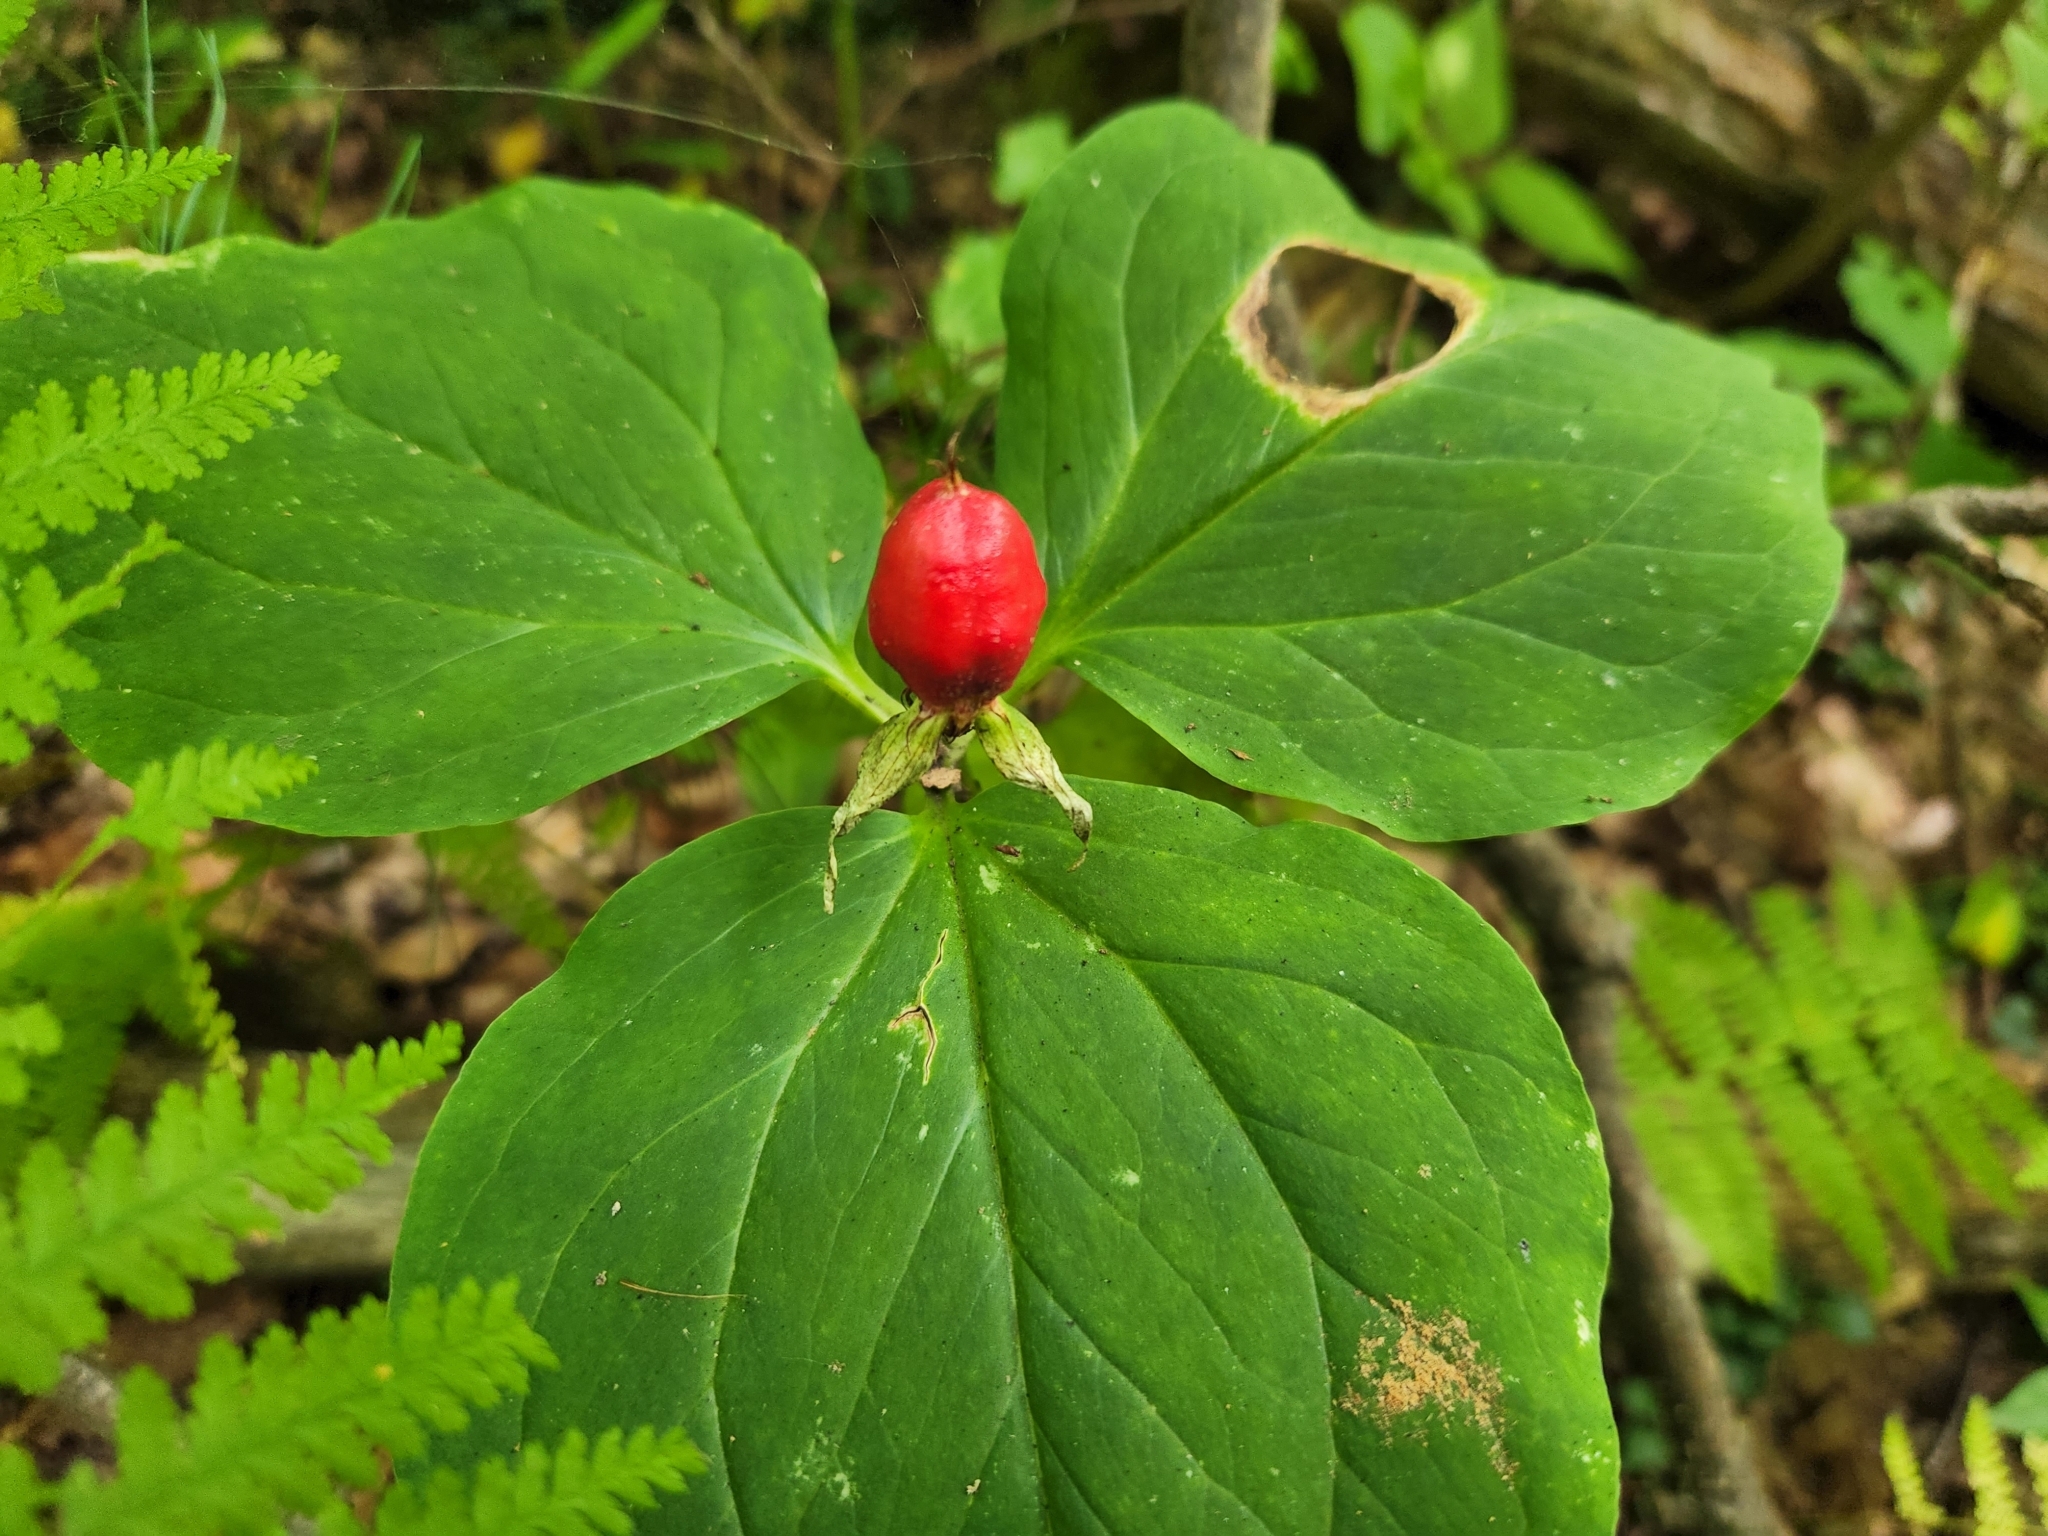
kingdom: Plantae
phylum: Tracheophyta
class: Liliopsida
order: Liliales
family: Melanthiaceae
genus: Trillium
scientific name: Trillium undulatum
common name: Paint trillium
